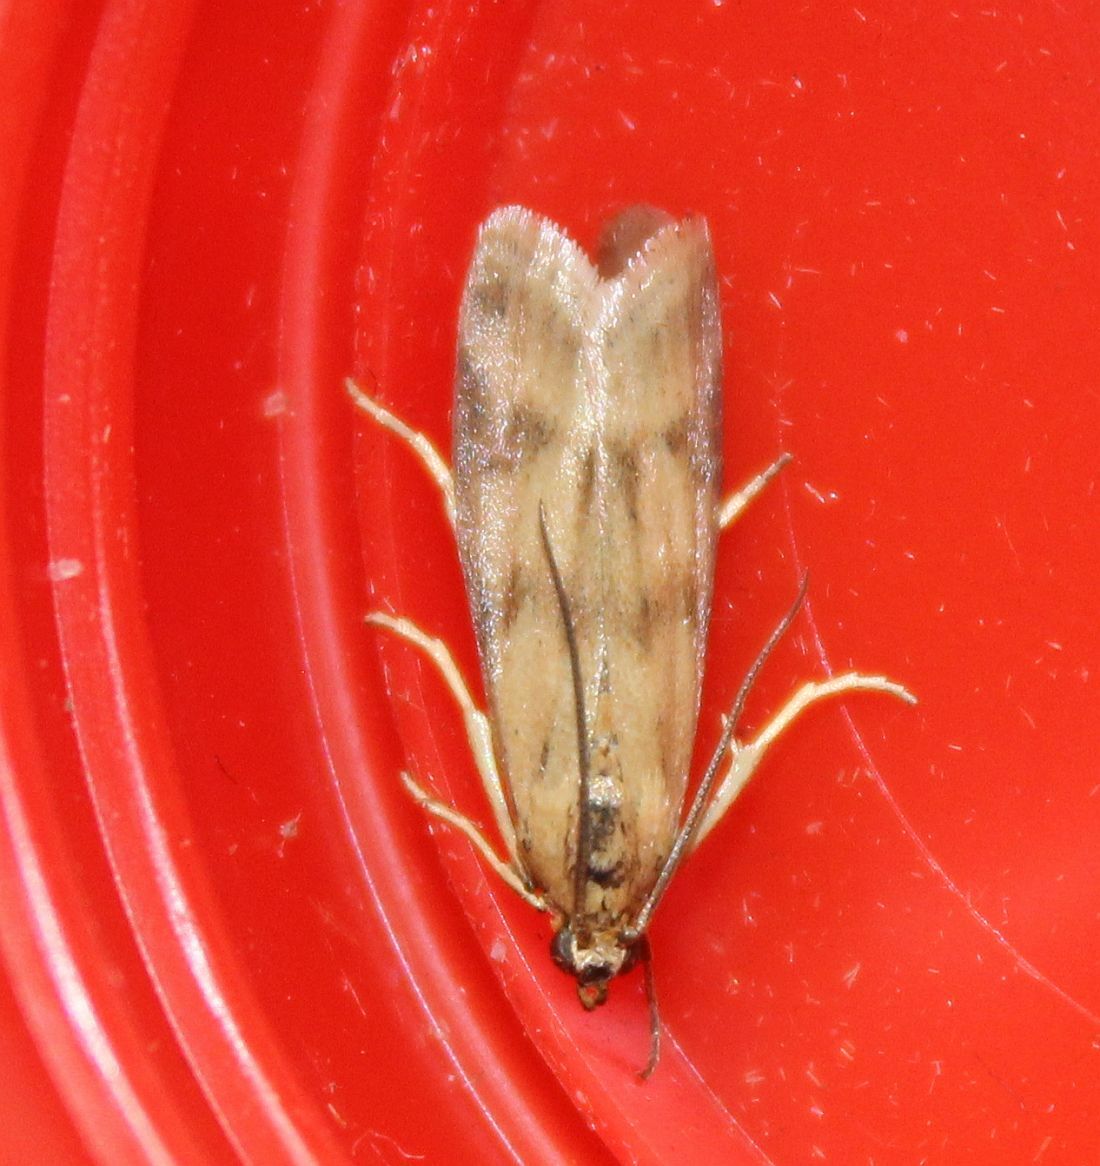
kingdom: Animalia
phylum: Arthropoda
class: Insecta
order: Lepidoptera
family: Pyralidae
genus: Homoeosoma
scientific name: Homoeosoma sinuella
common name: Twin-barred knot-horn
